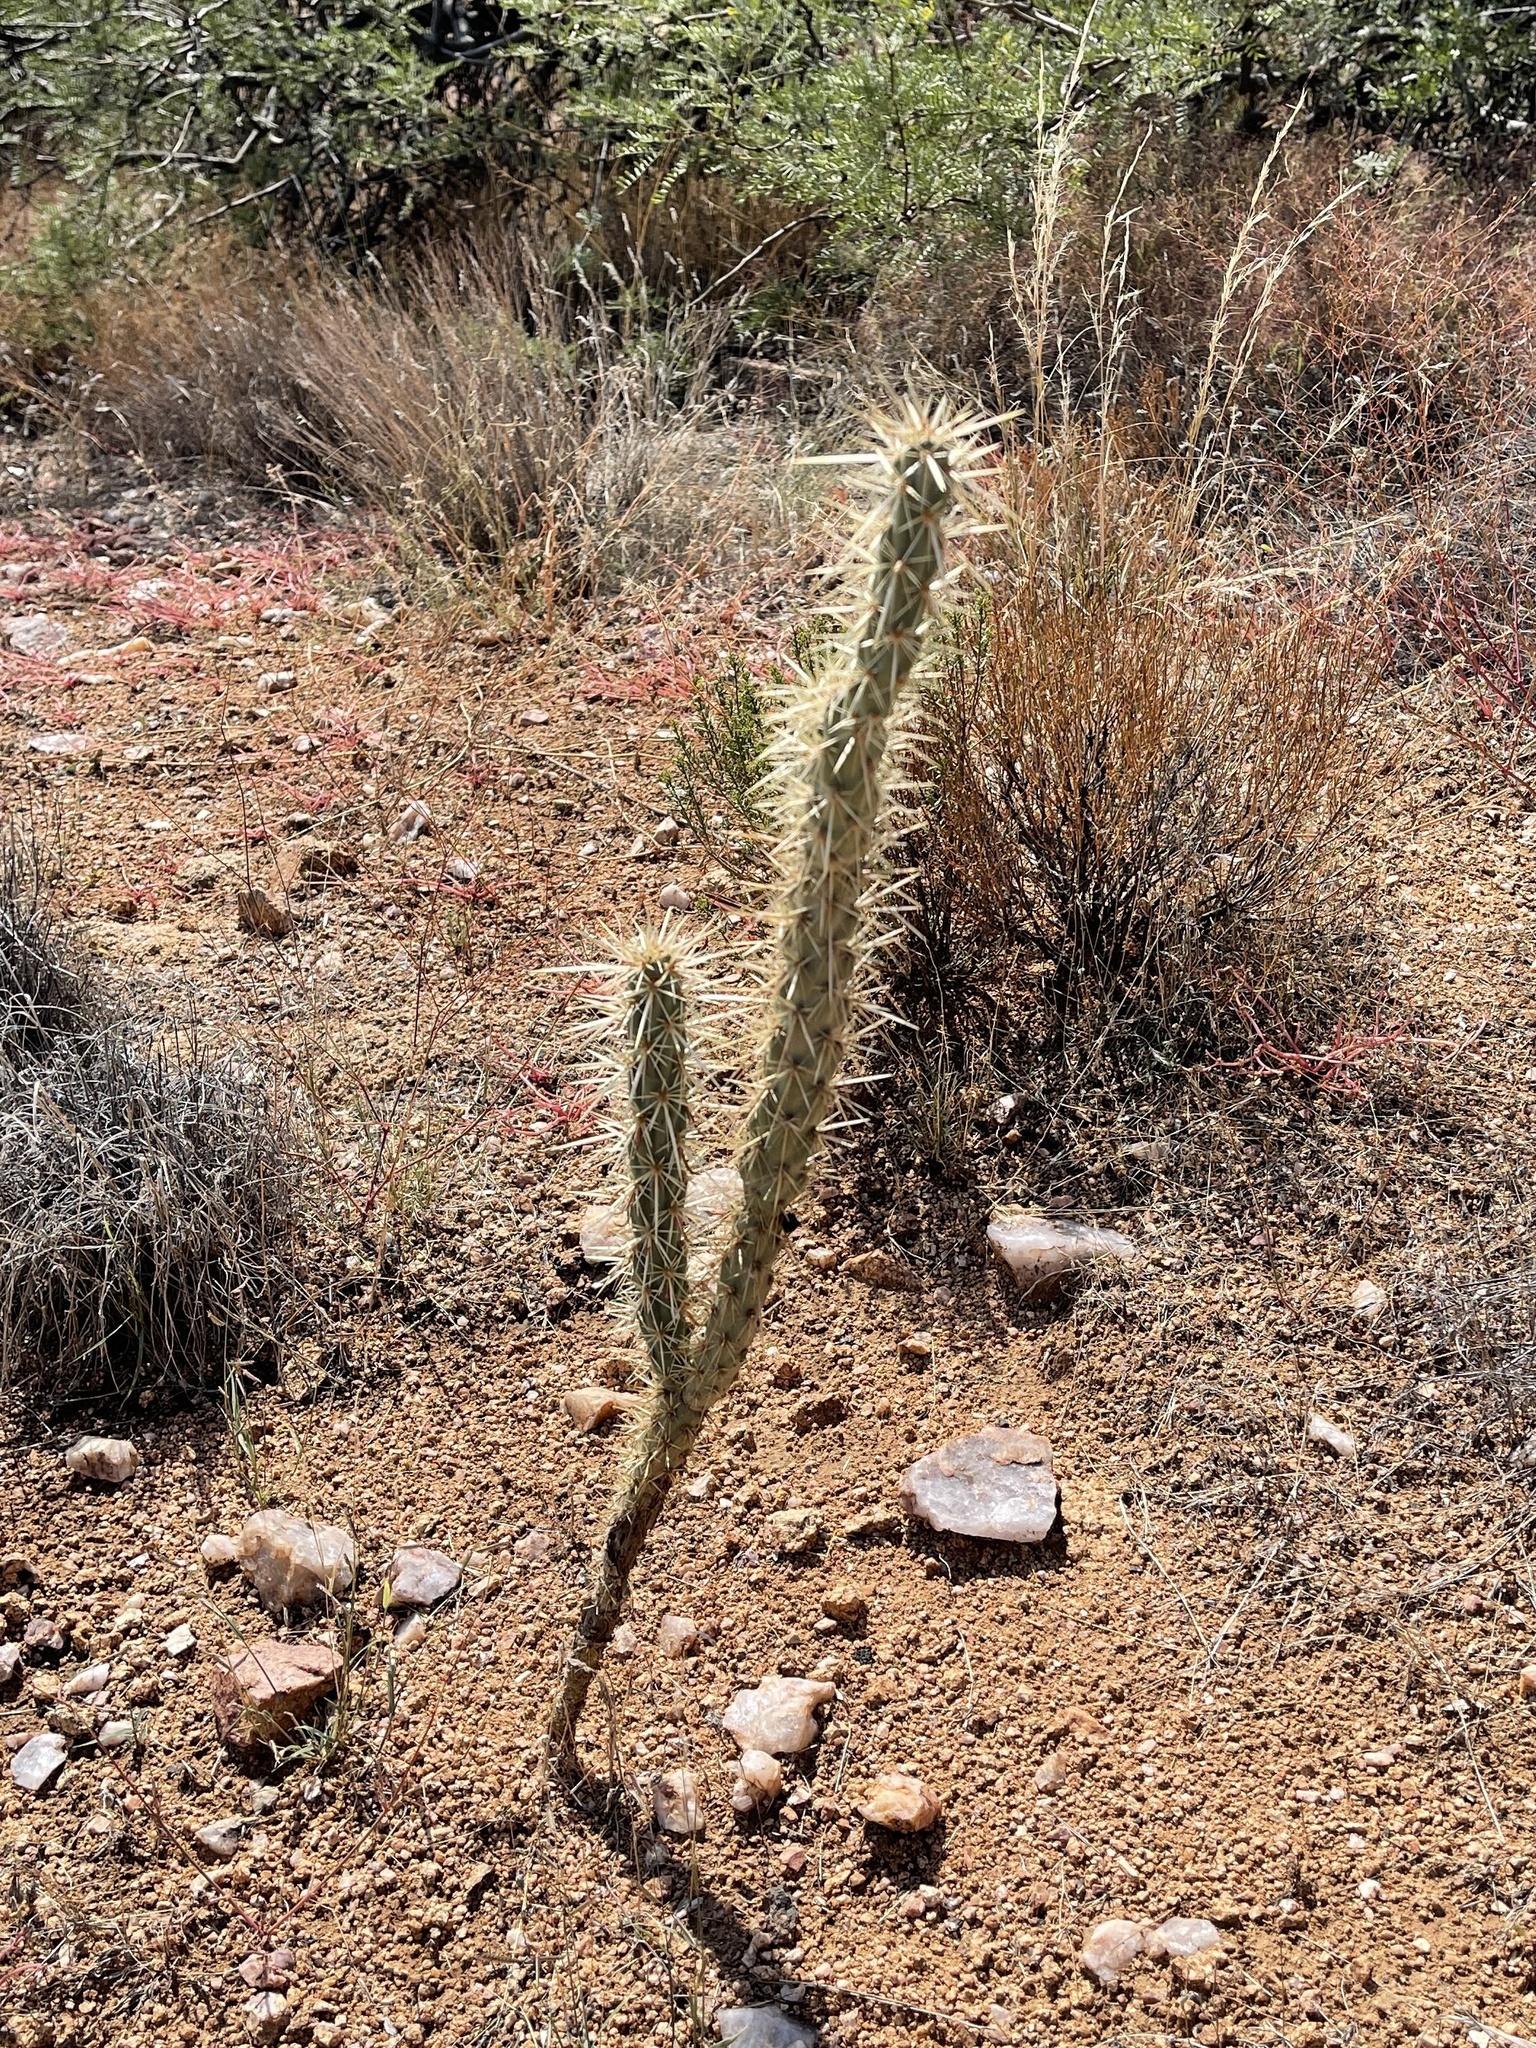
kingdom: Plantae
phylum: Tracheophyta
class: Magnoliopsida
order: Caryophyllales
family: Cactaceae
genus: Cylindropuntia
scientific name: Cylindropuntia acanthocarpa
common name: Buckhorn cholla
